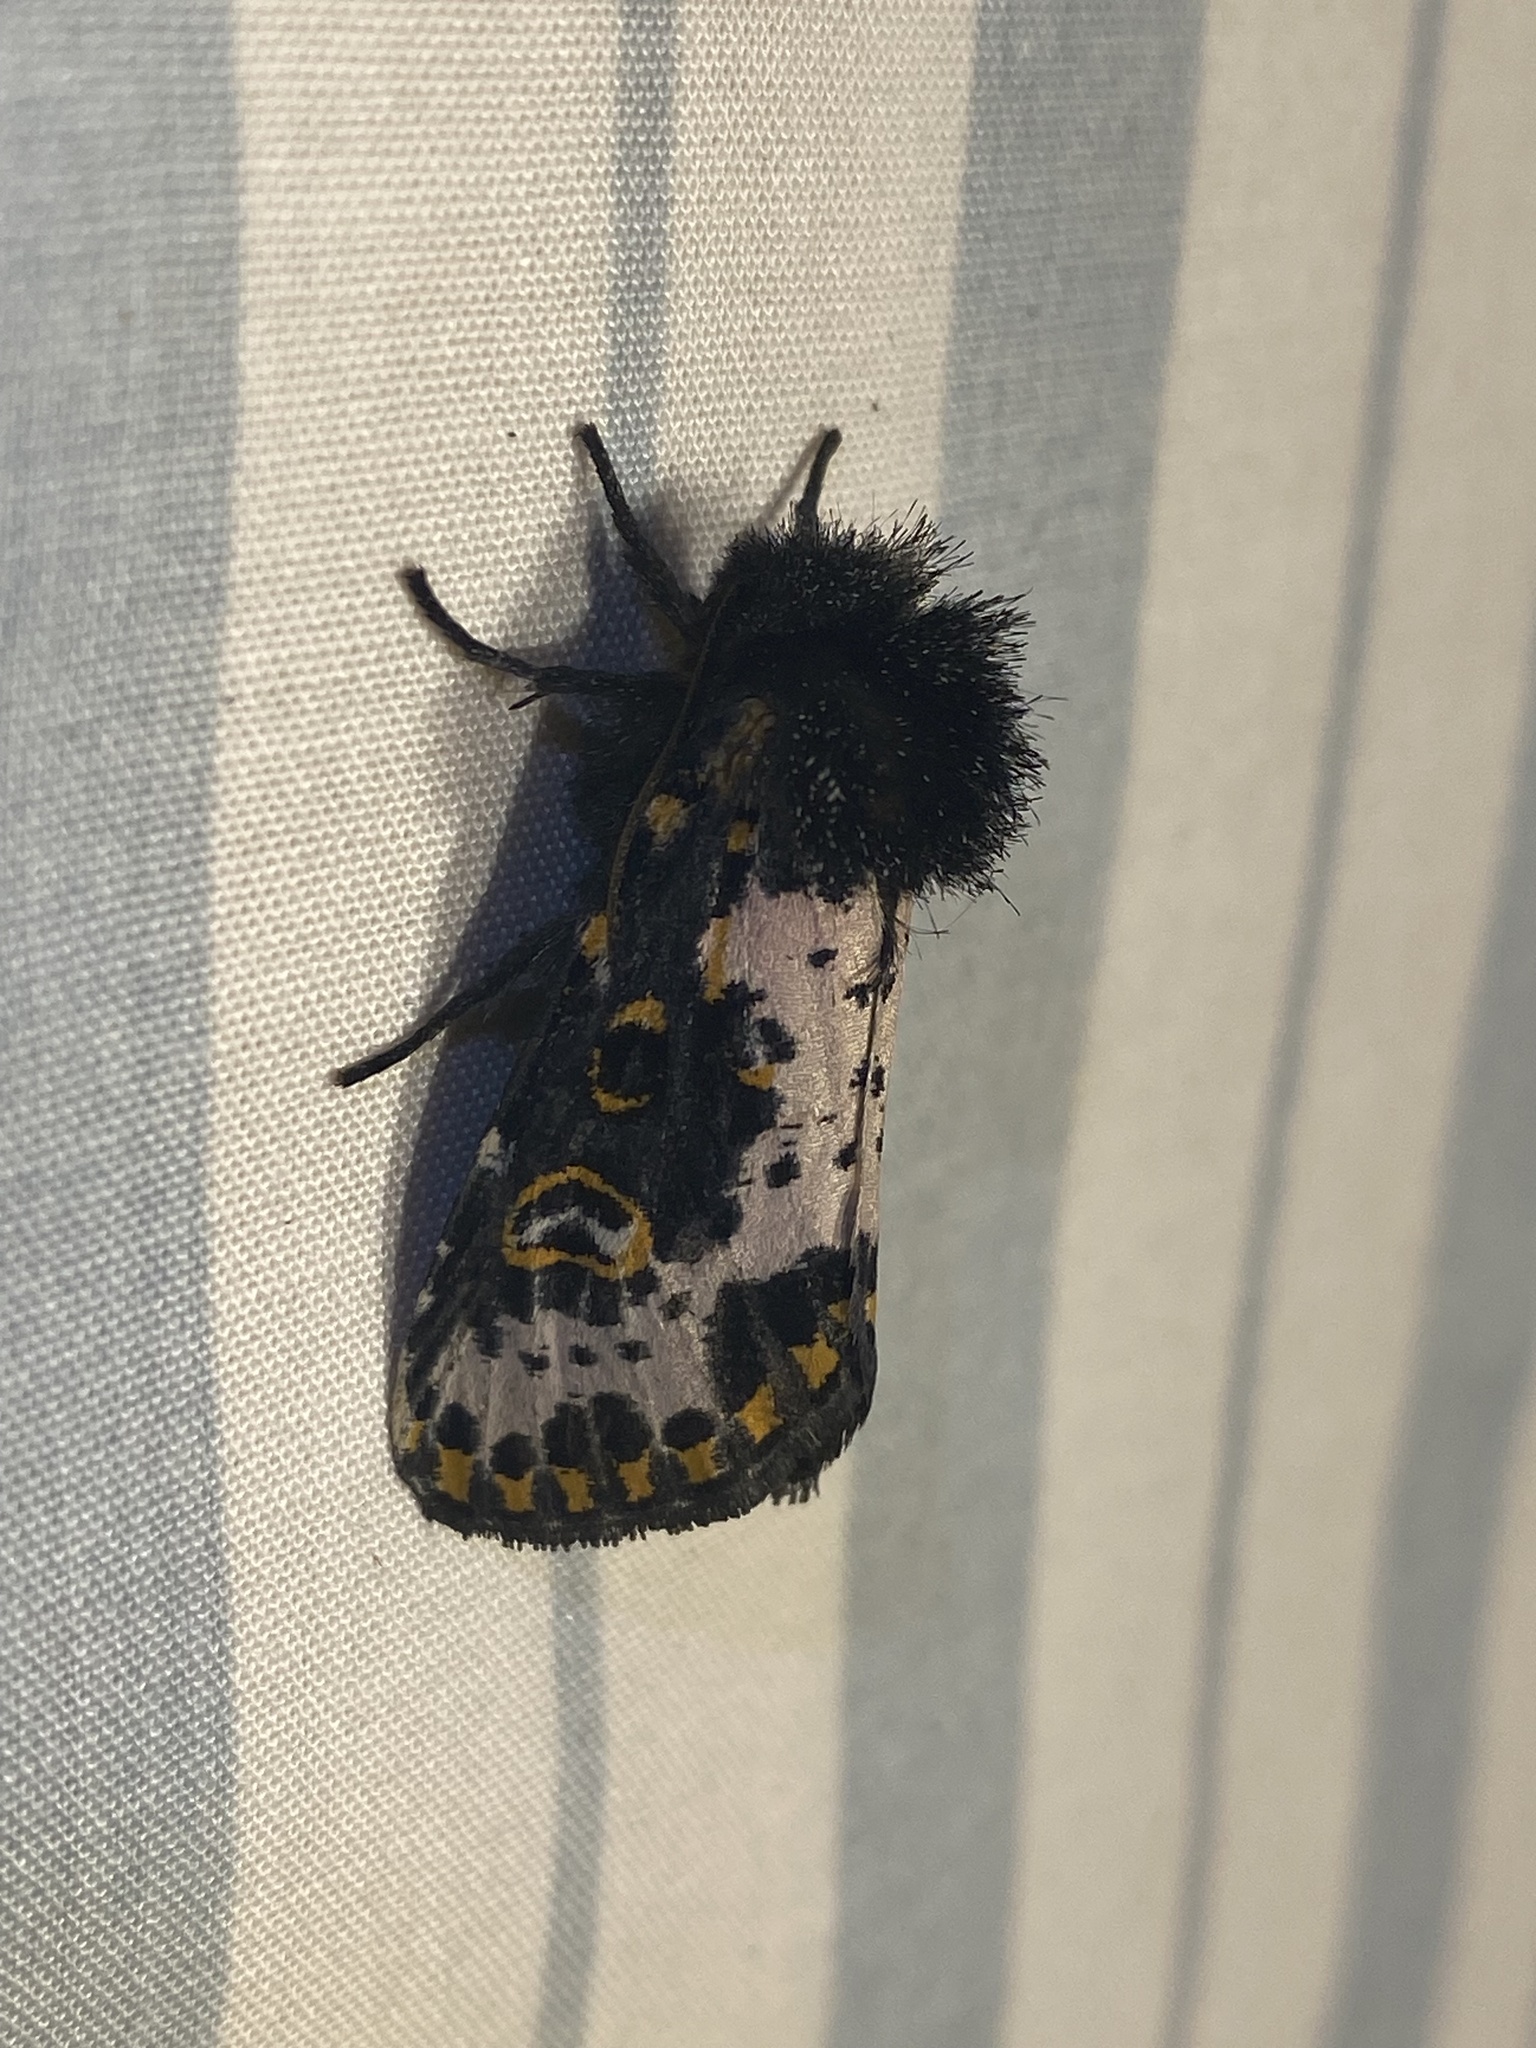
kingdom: Animalia
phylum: Arthropoda
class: Insecta
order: Lepidoptera
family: Noctuidae
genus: Xanthopastis
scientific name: Xanthopastis regnatrix
